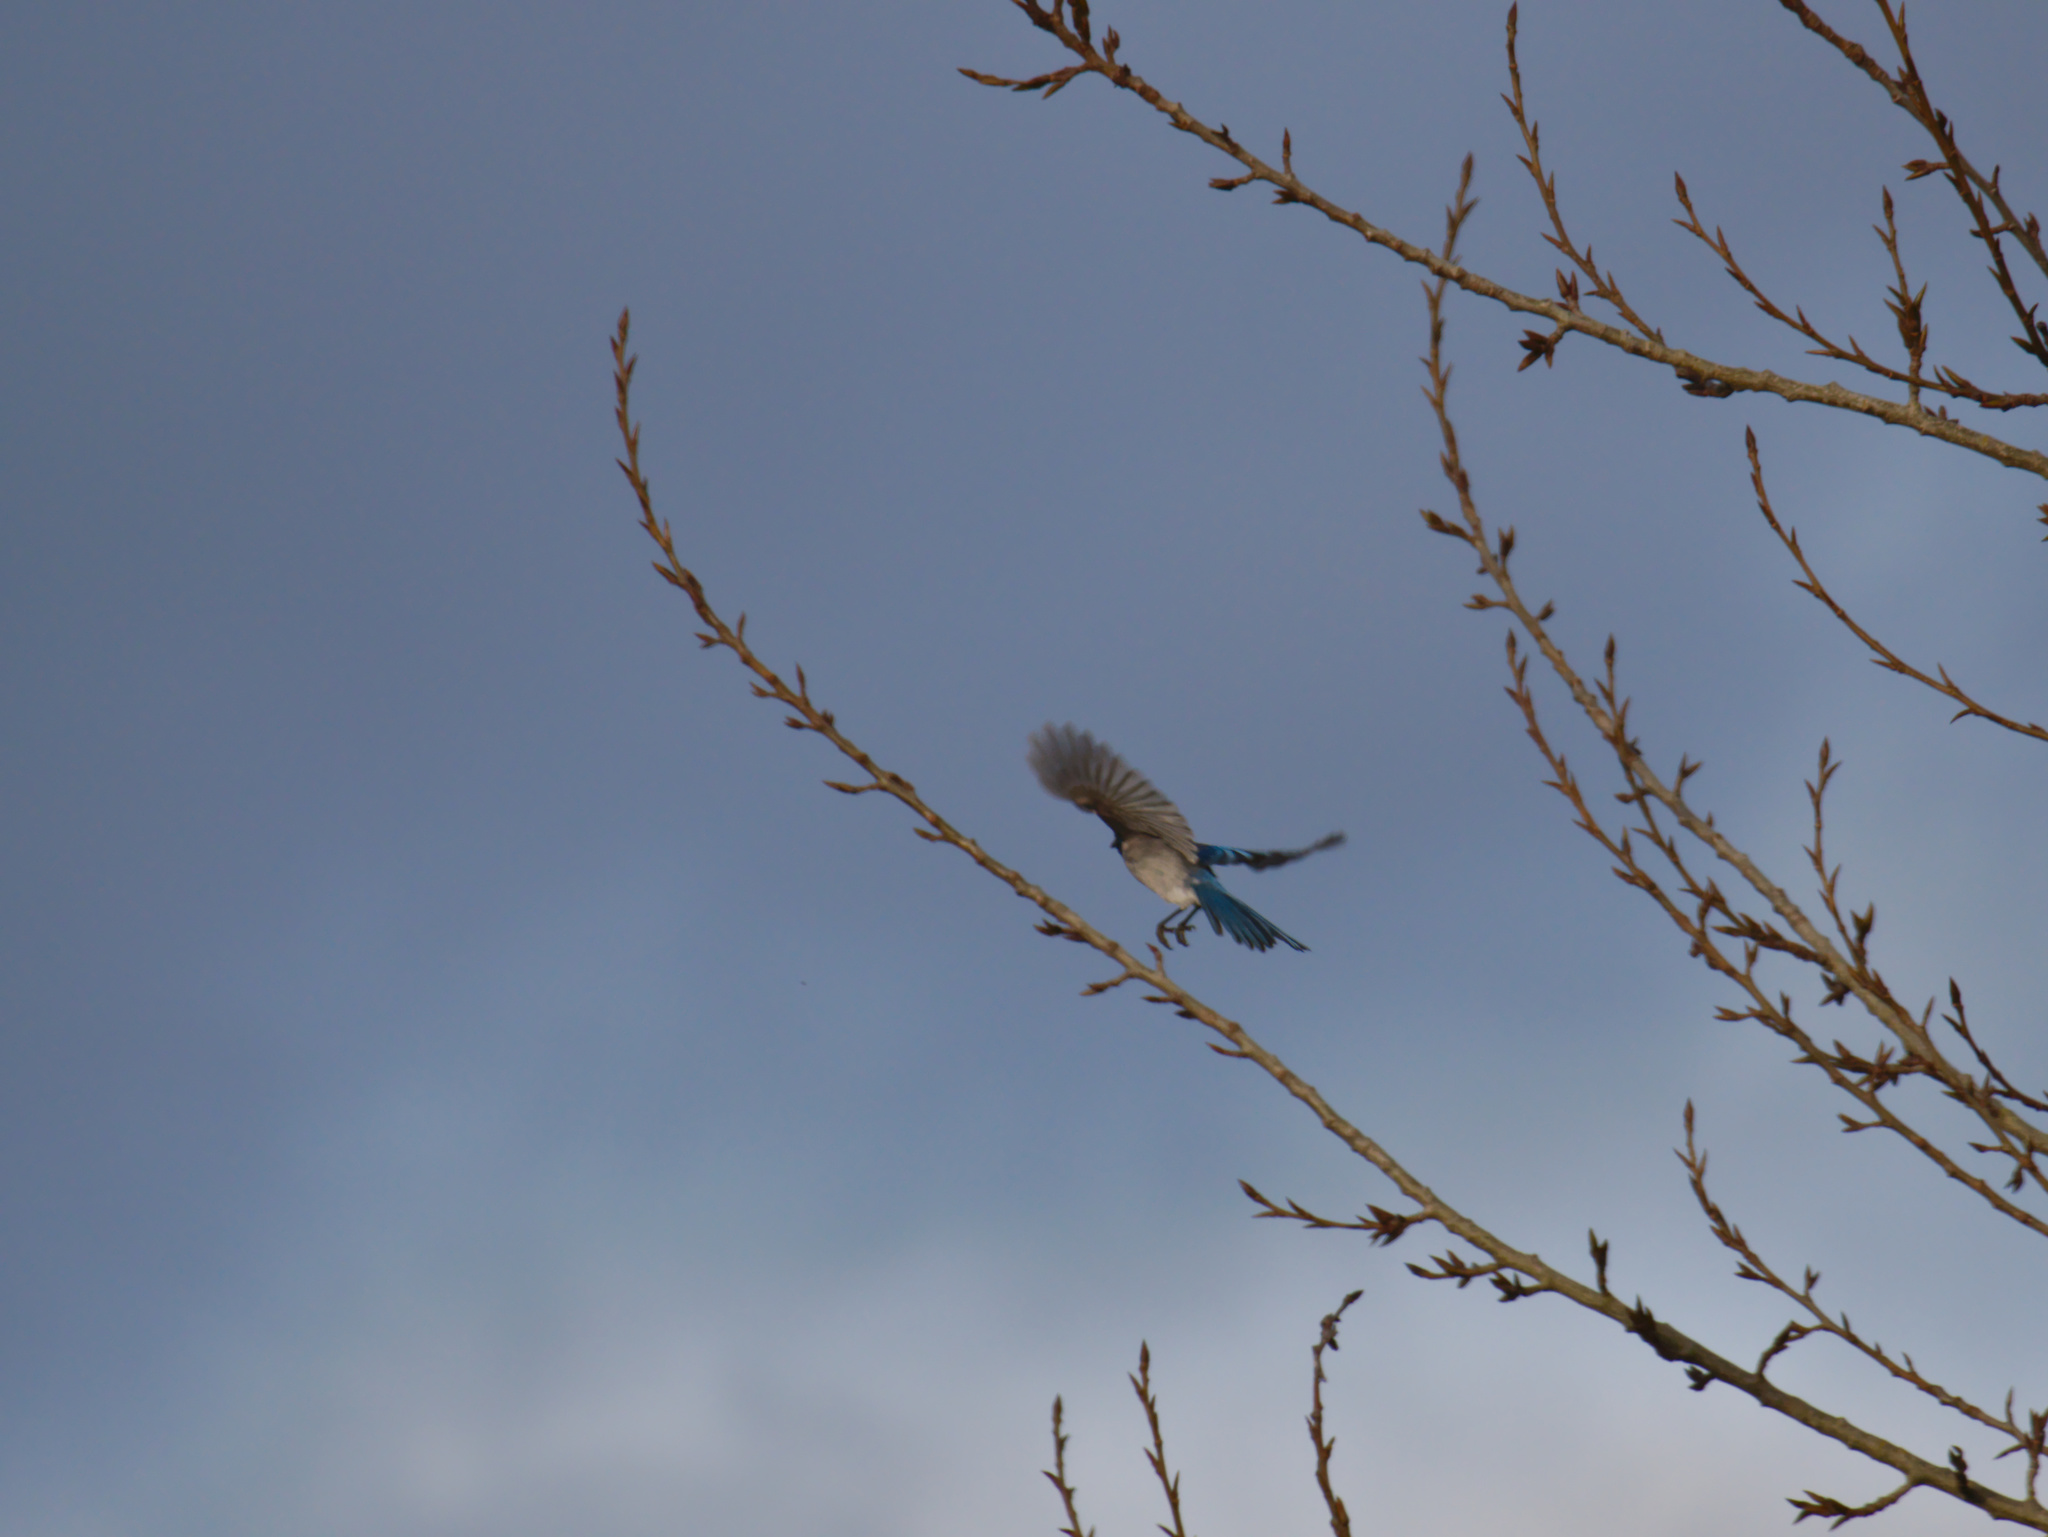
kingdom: Animalia
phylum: Chordata
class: Aves
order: Passeriformes
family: Corvidae
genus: Aphelocoma
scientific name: Aphelocoma californica
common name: California scrub-jay
